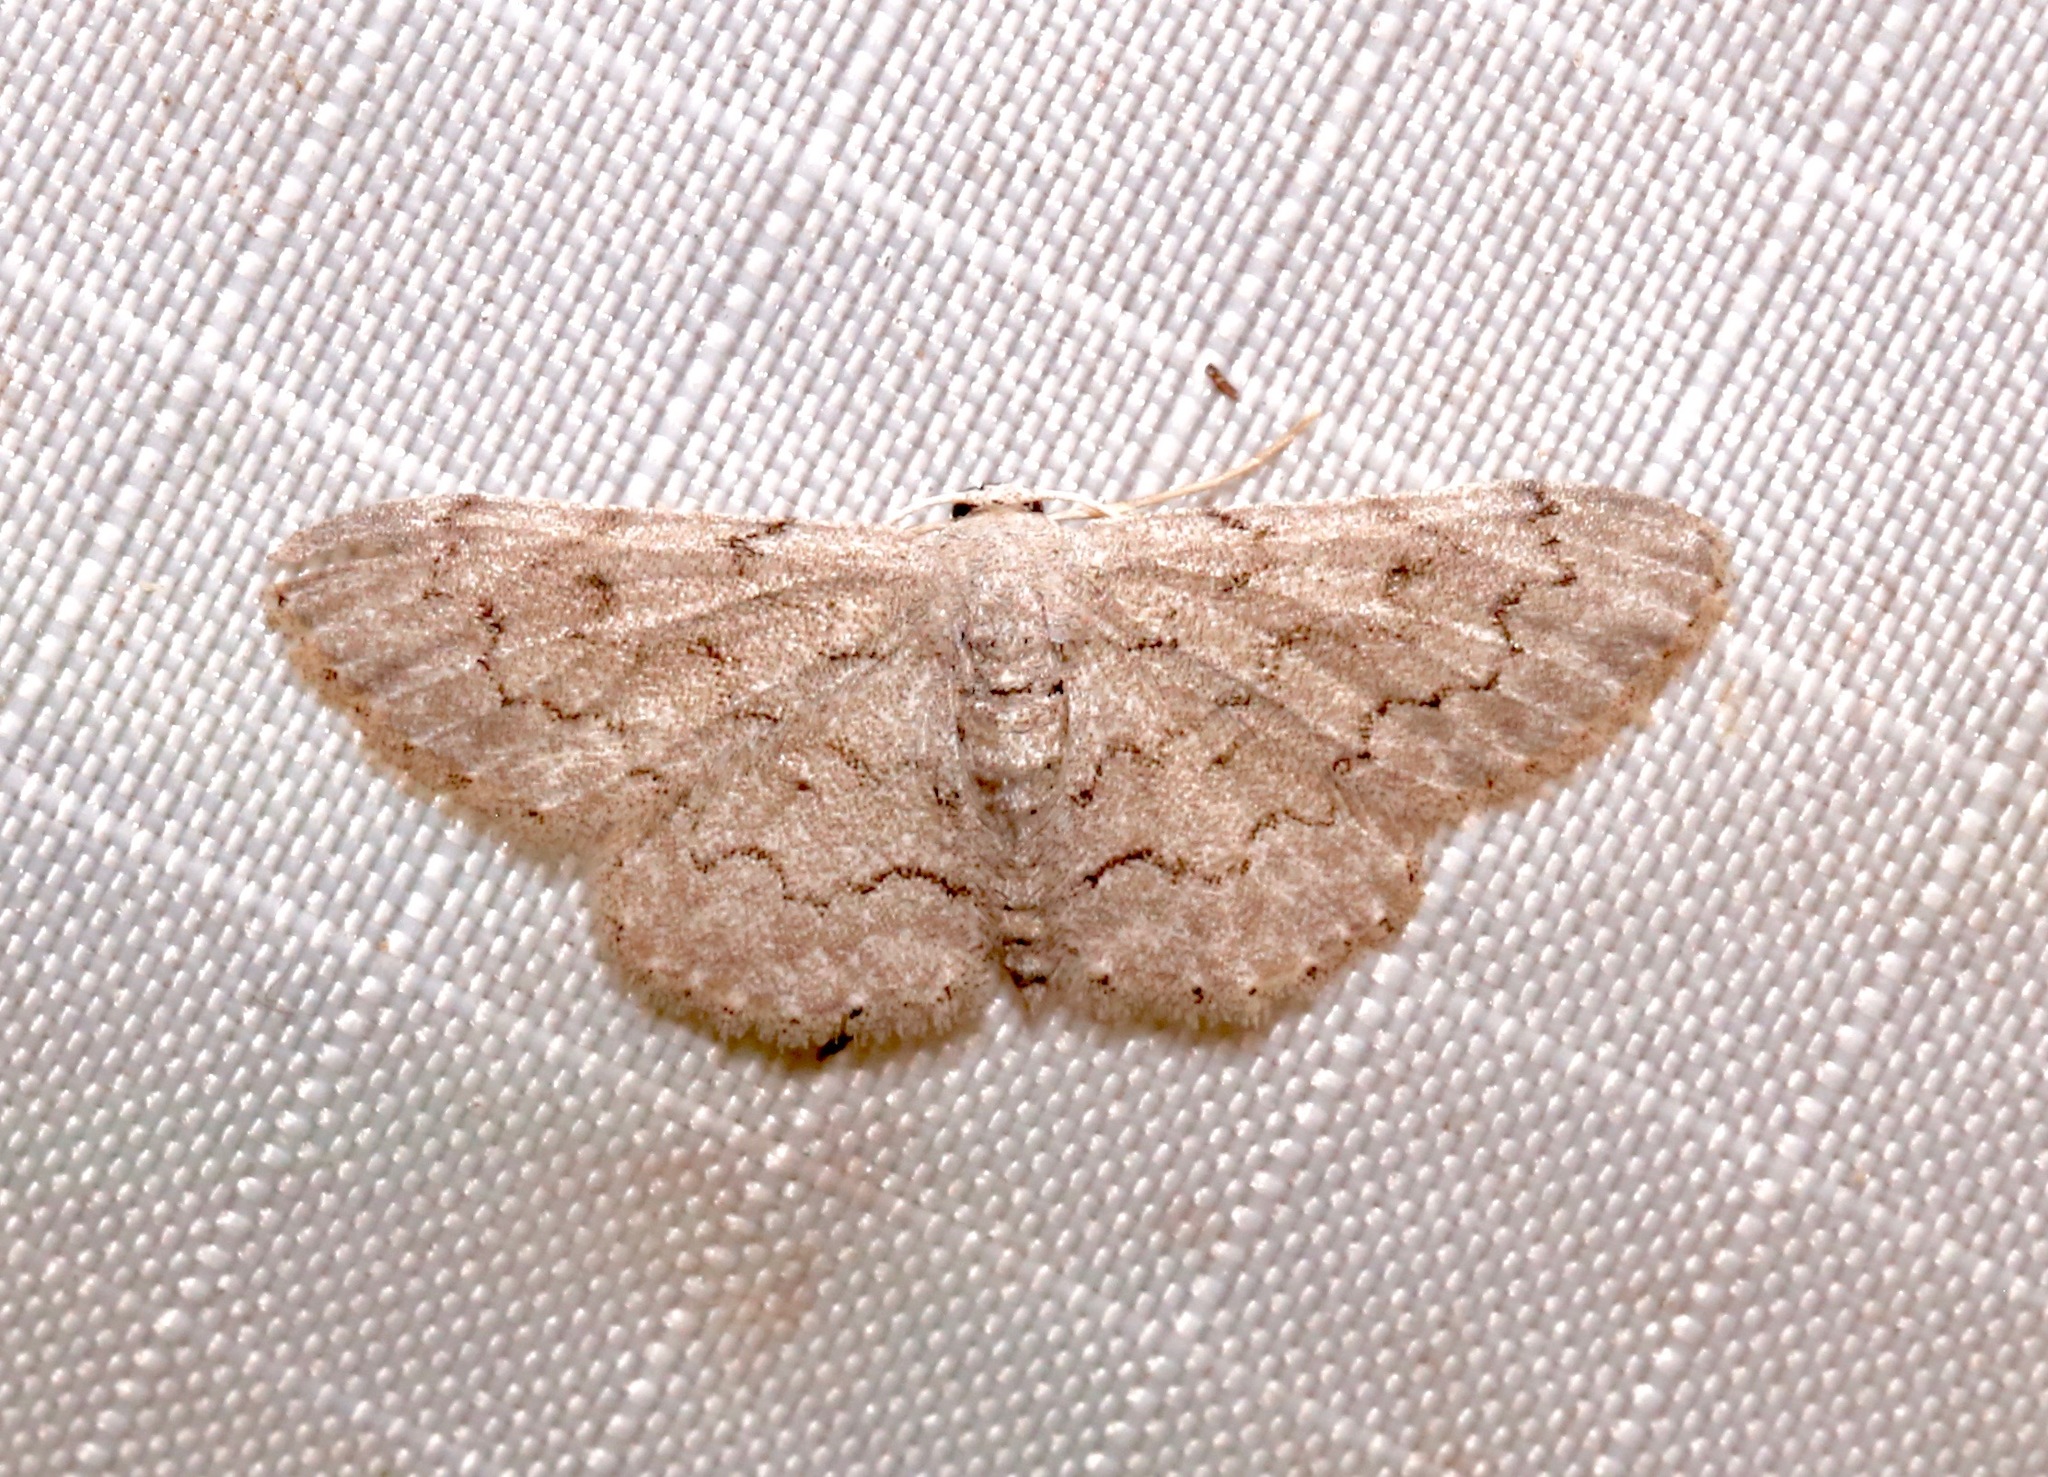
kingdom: Animalia
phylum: Arthropoda
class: Insecta
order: Lepidoptera
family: Geometridae
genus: Idaea
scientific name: Idaea violacearia
